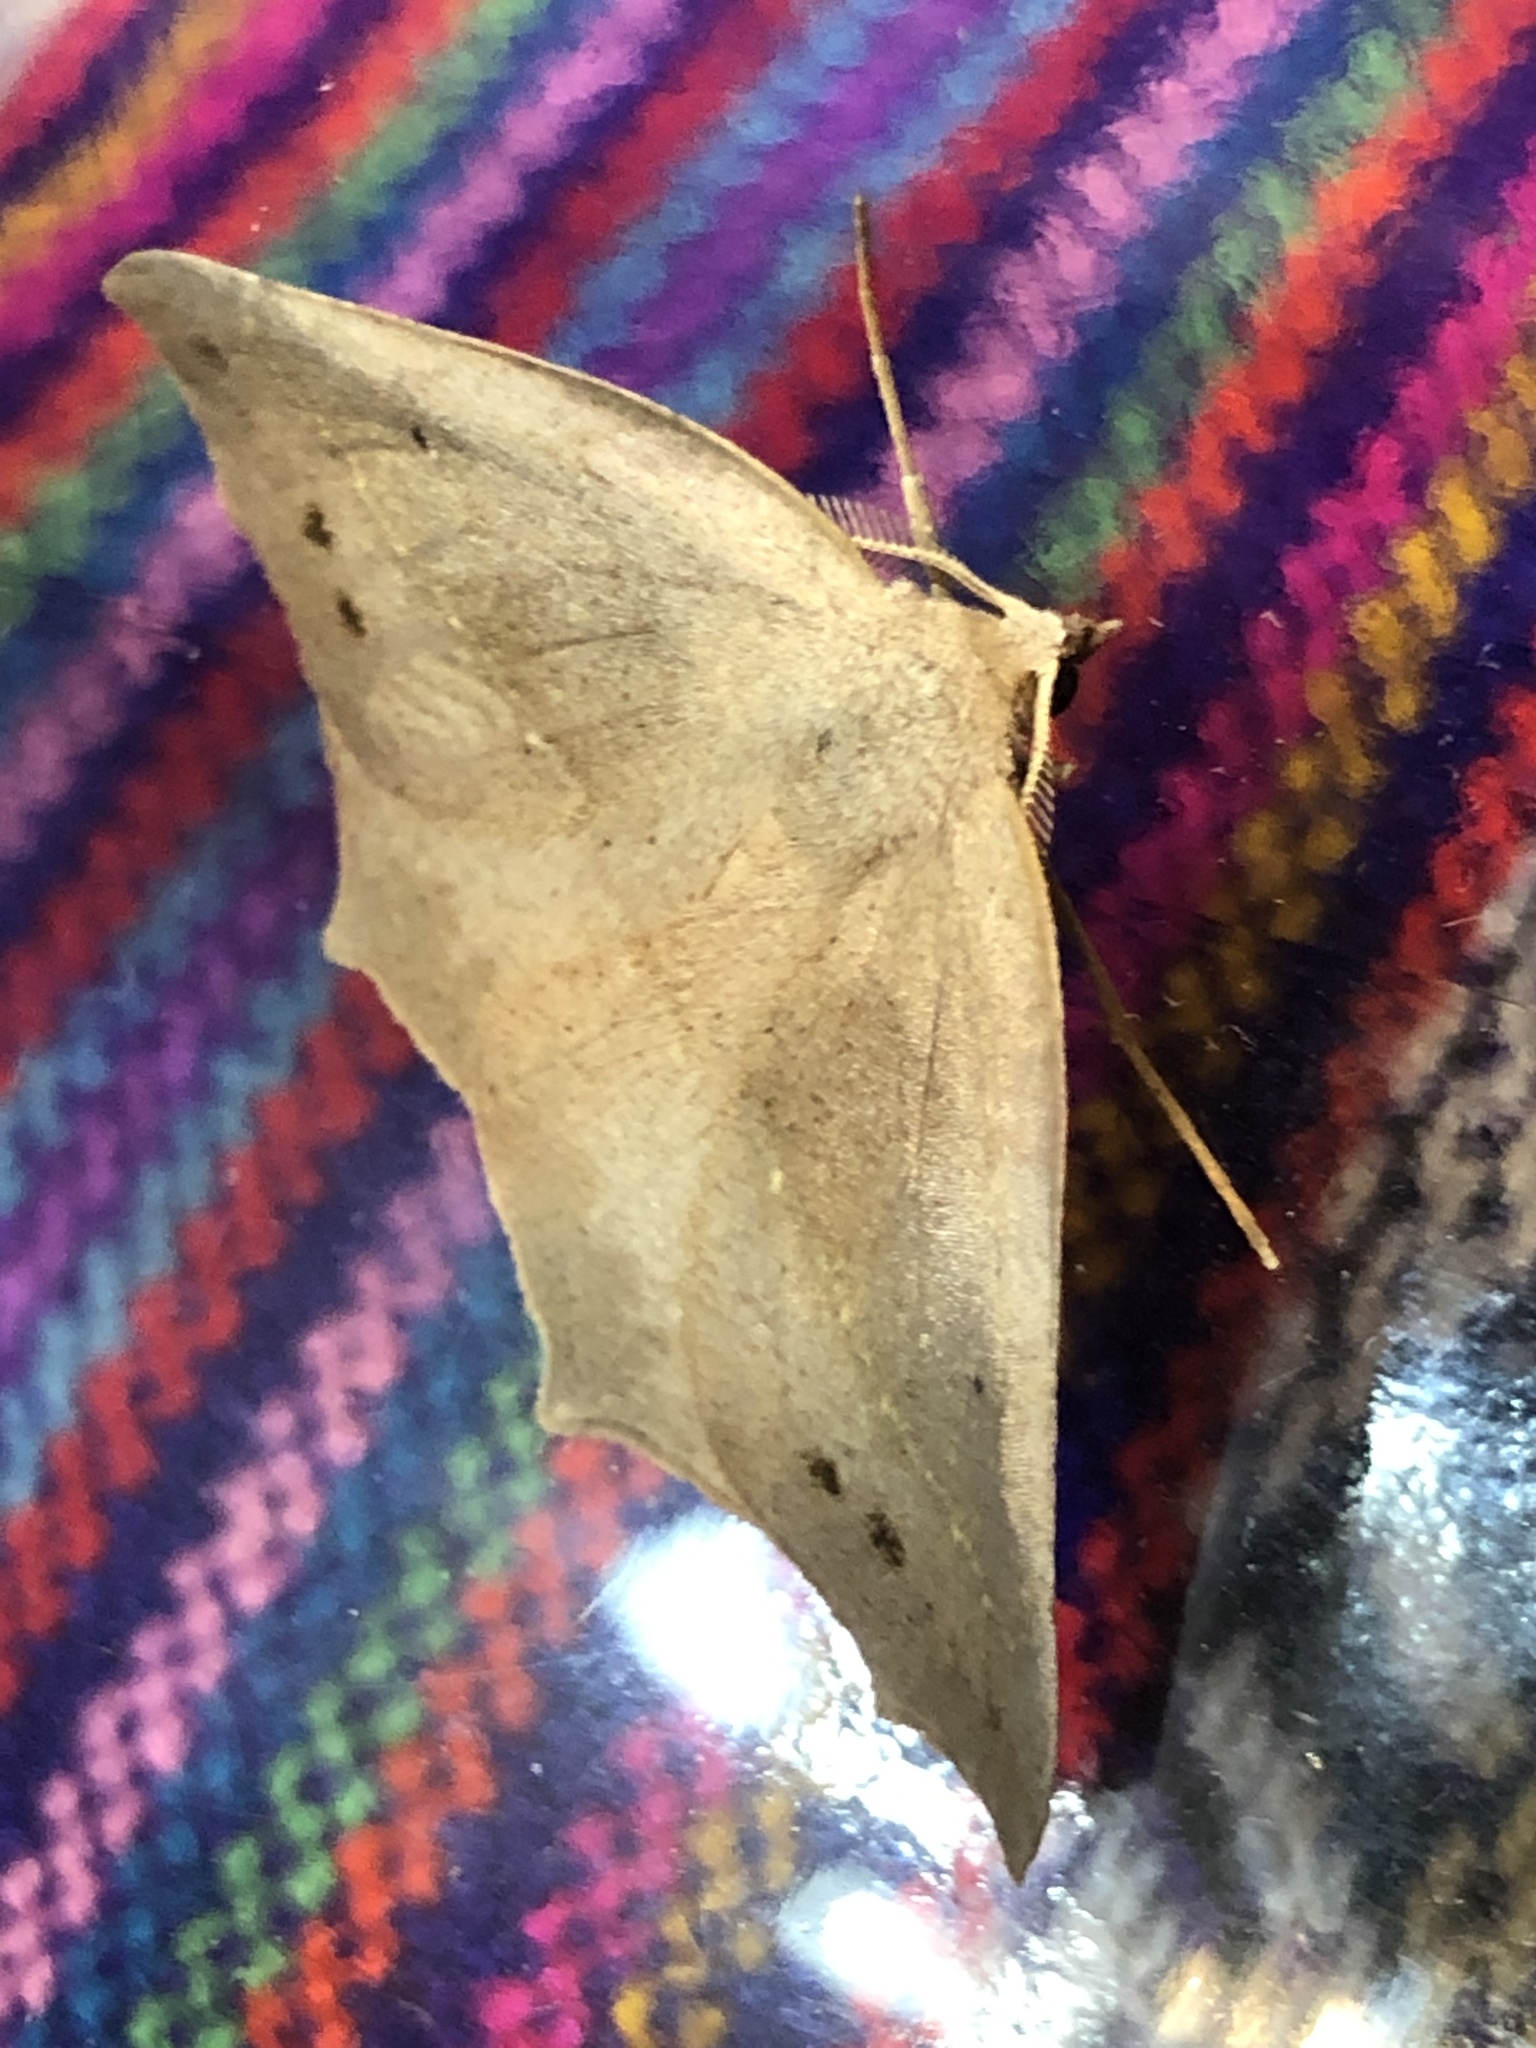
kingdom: Animalia
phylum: Arthropoda
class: Insecta
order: Lepidoptera
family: Geometridae
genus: Syncirsodes
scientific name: Syncirsodes primata
